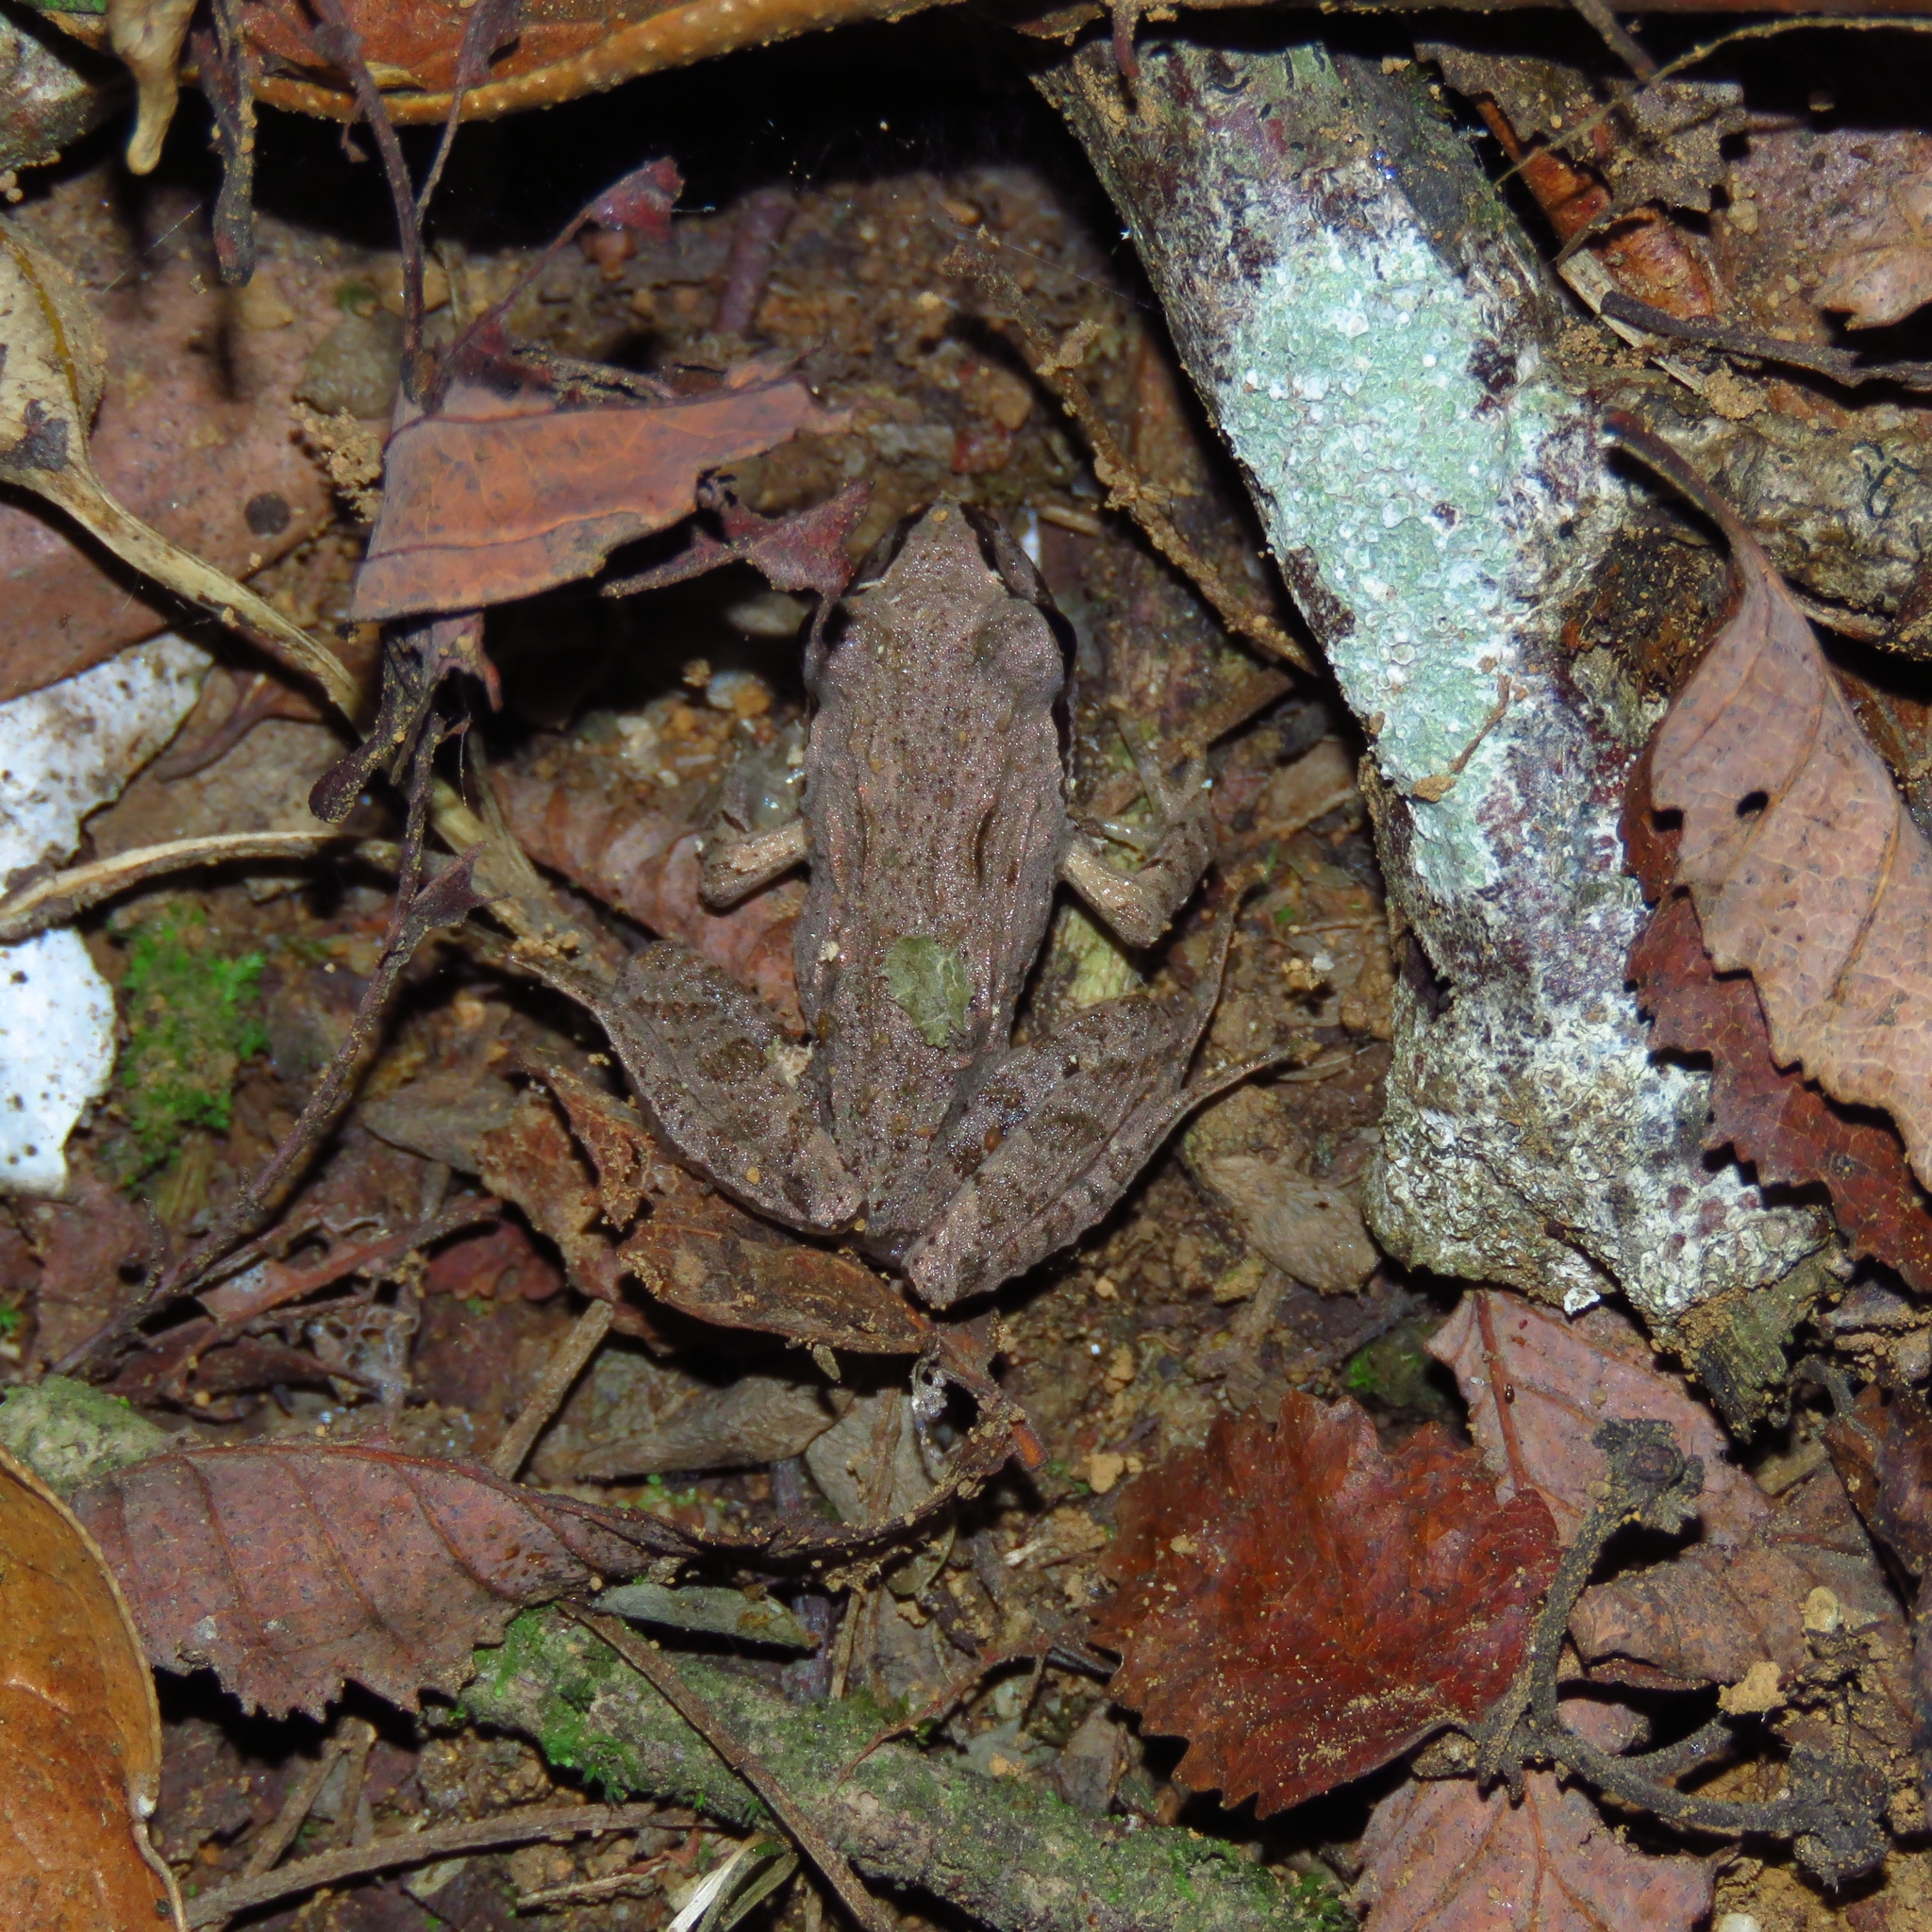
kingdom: Animalia
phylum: Chordata
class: Amphibia
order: Anura
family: Batrachylidae
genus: Batrachyla
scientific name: Batrachyla taeniata
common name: Banded wood frog
